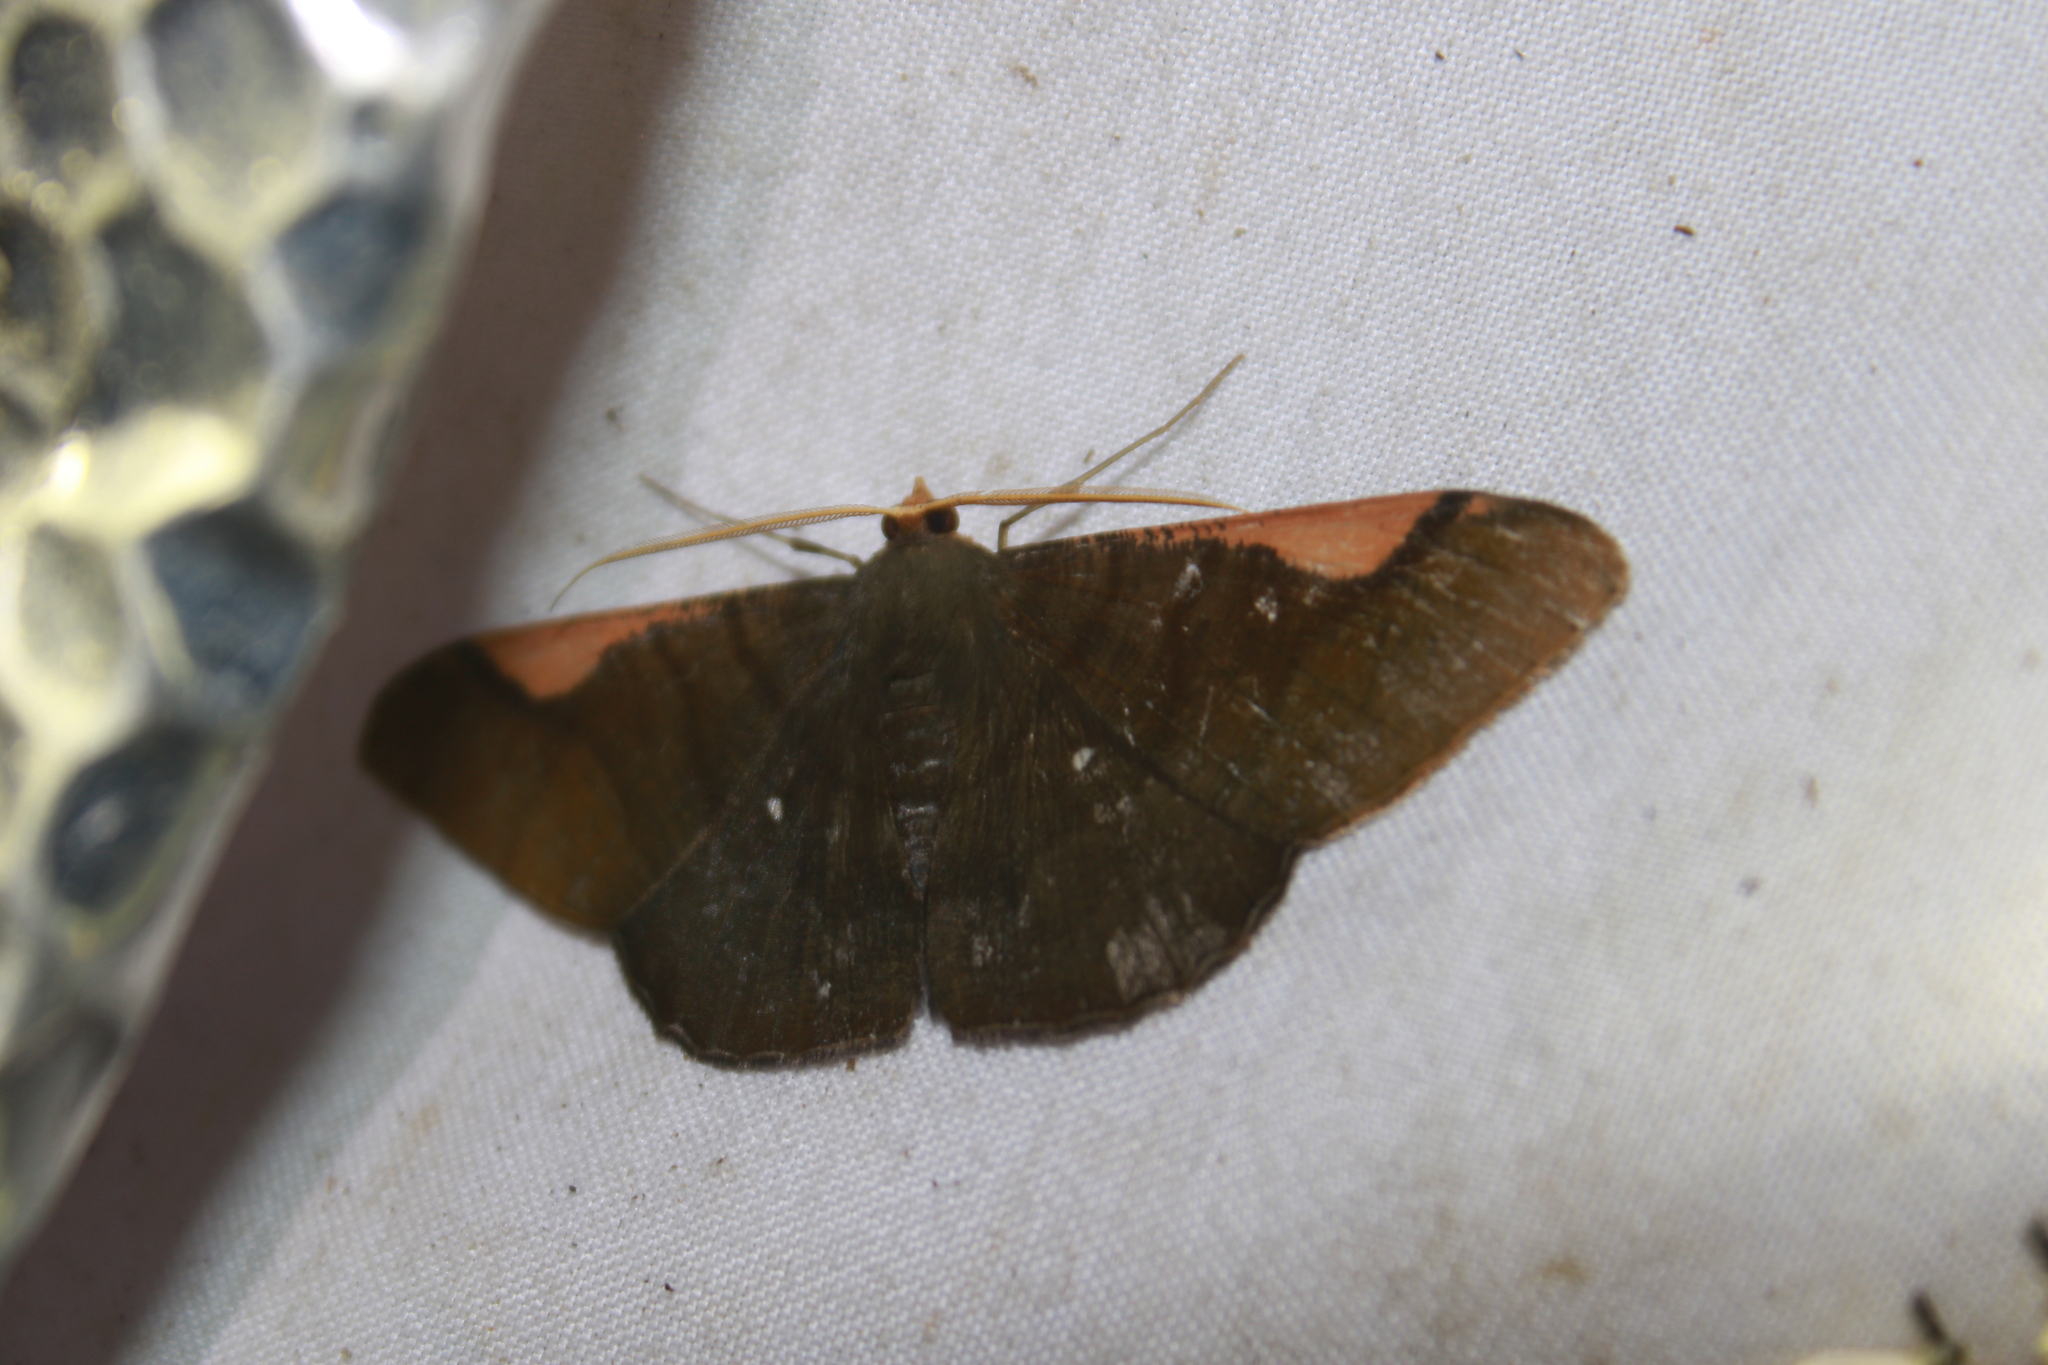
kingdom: Animalia
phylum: Arthropoda
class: Insecta
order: Lepidoptera
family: Geometridae
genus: Sphacelodes
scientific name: Sphacelodes vulneraria
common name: Looper moth
